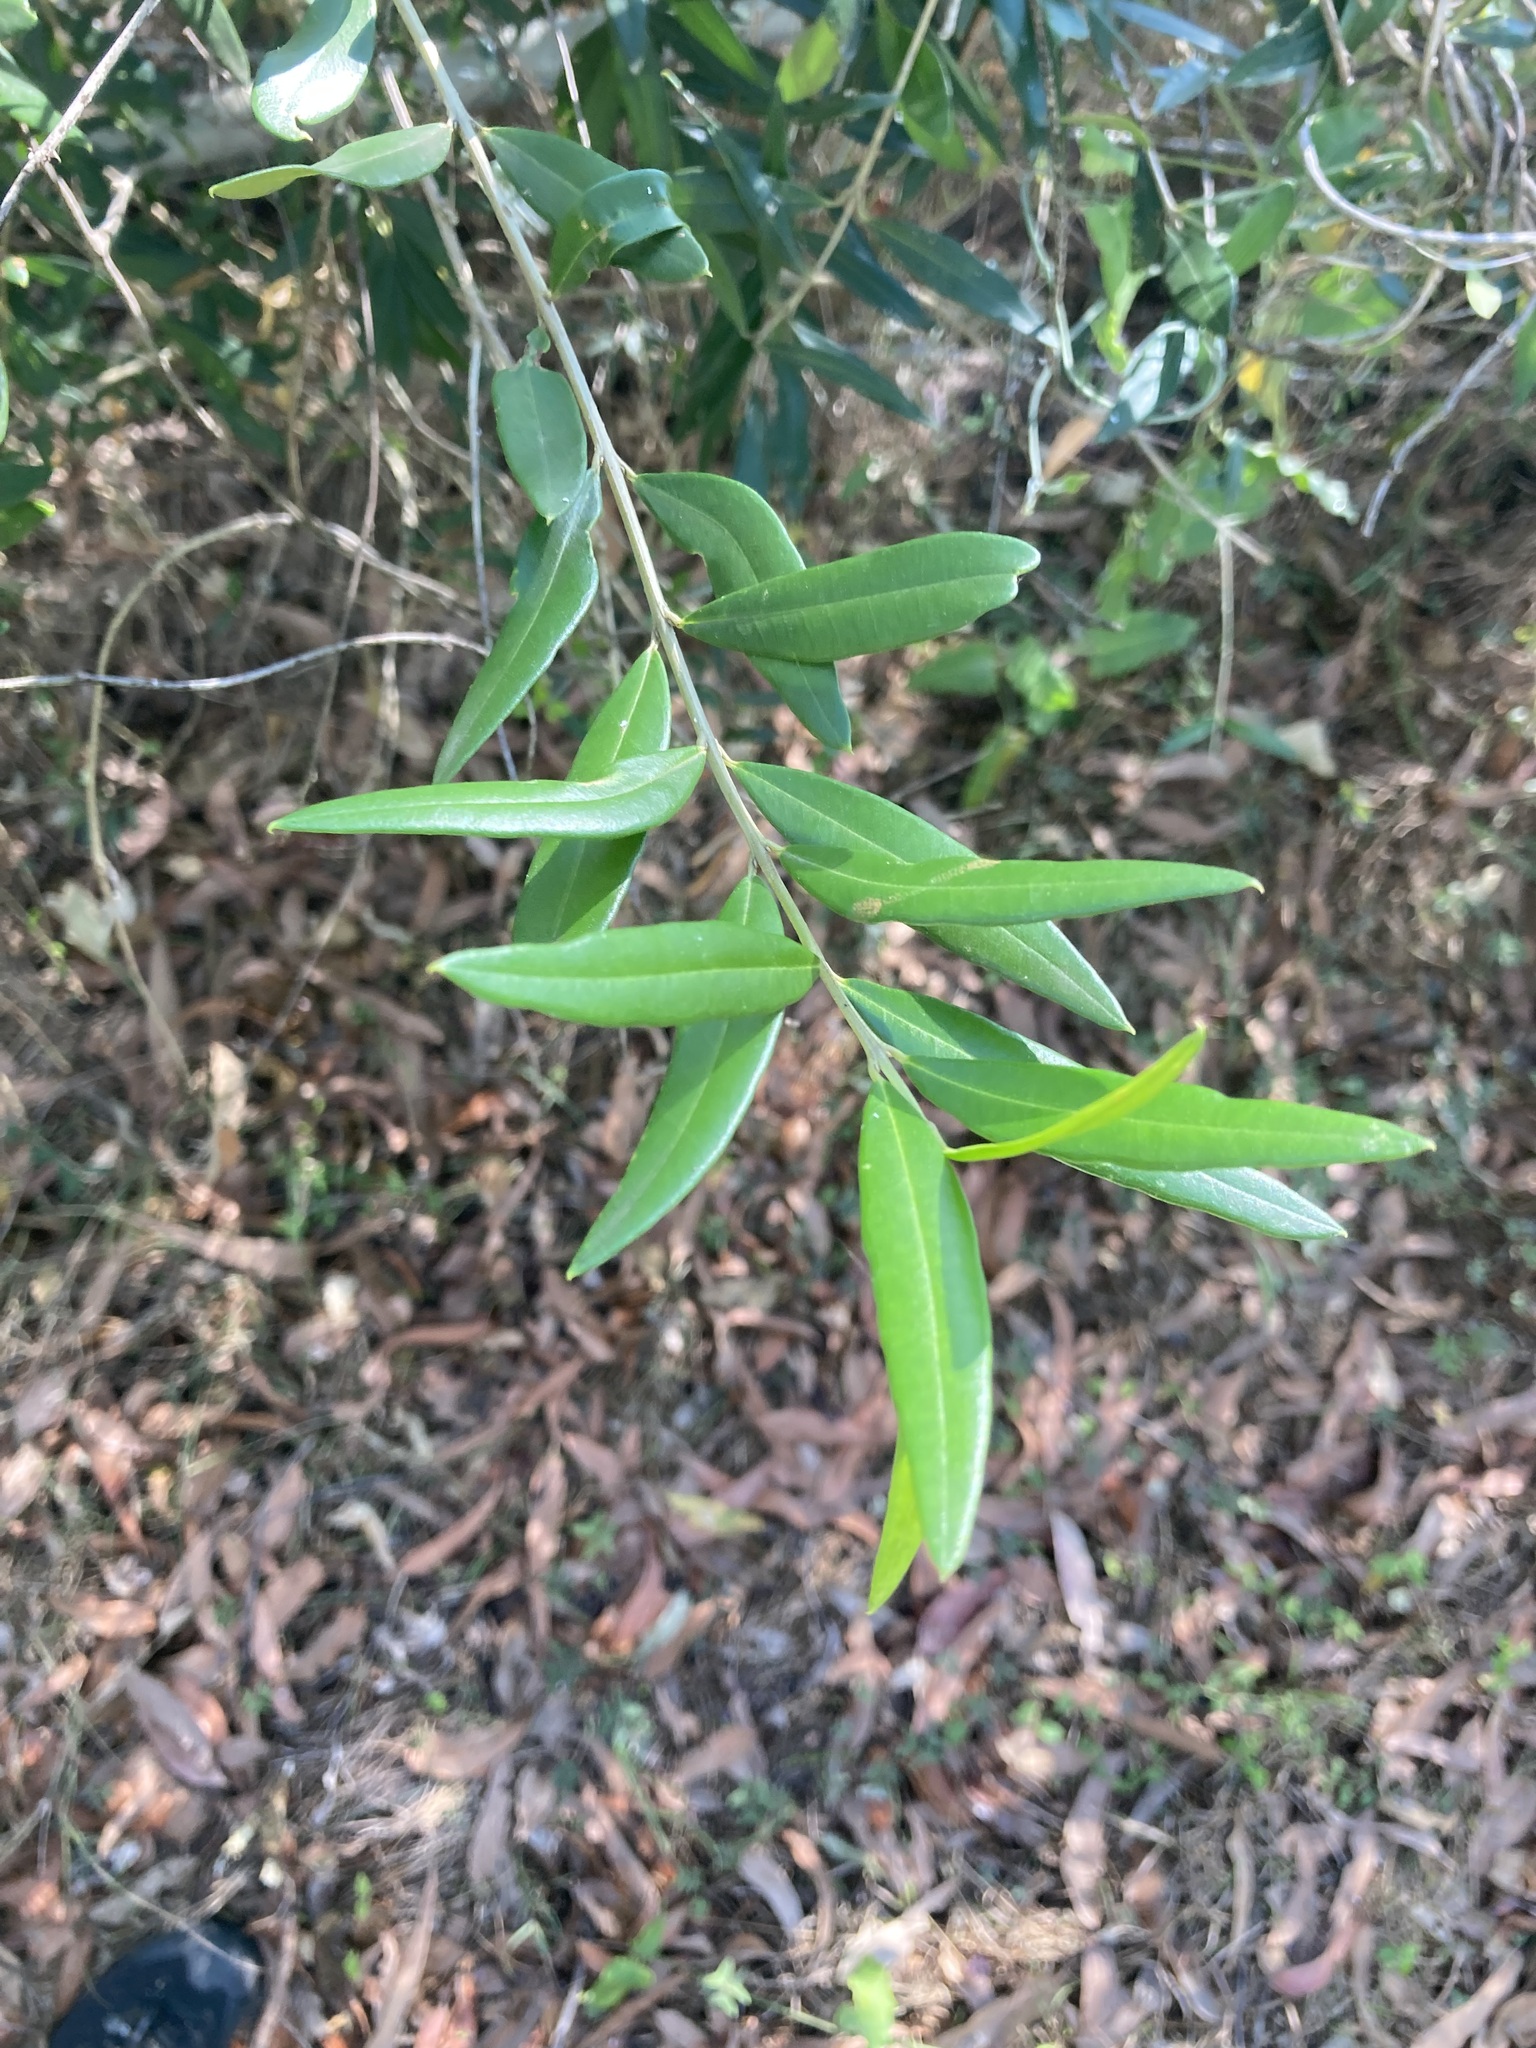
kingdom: Plantae
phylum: Tracheophyta
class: Magnoliopsida
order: Lamiales
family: Oleaceae
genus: Olea
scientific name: Olea europaea
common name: Olive
